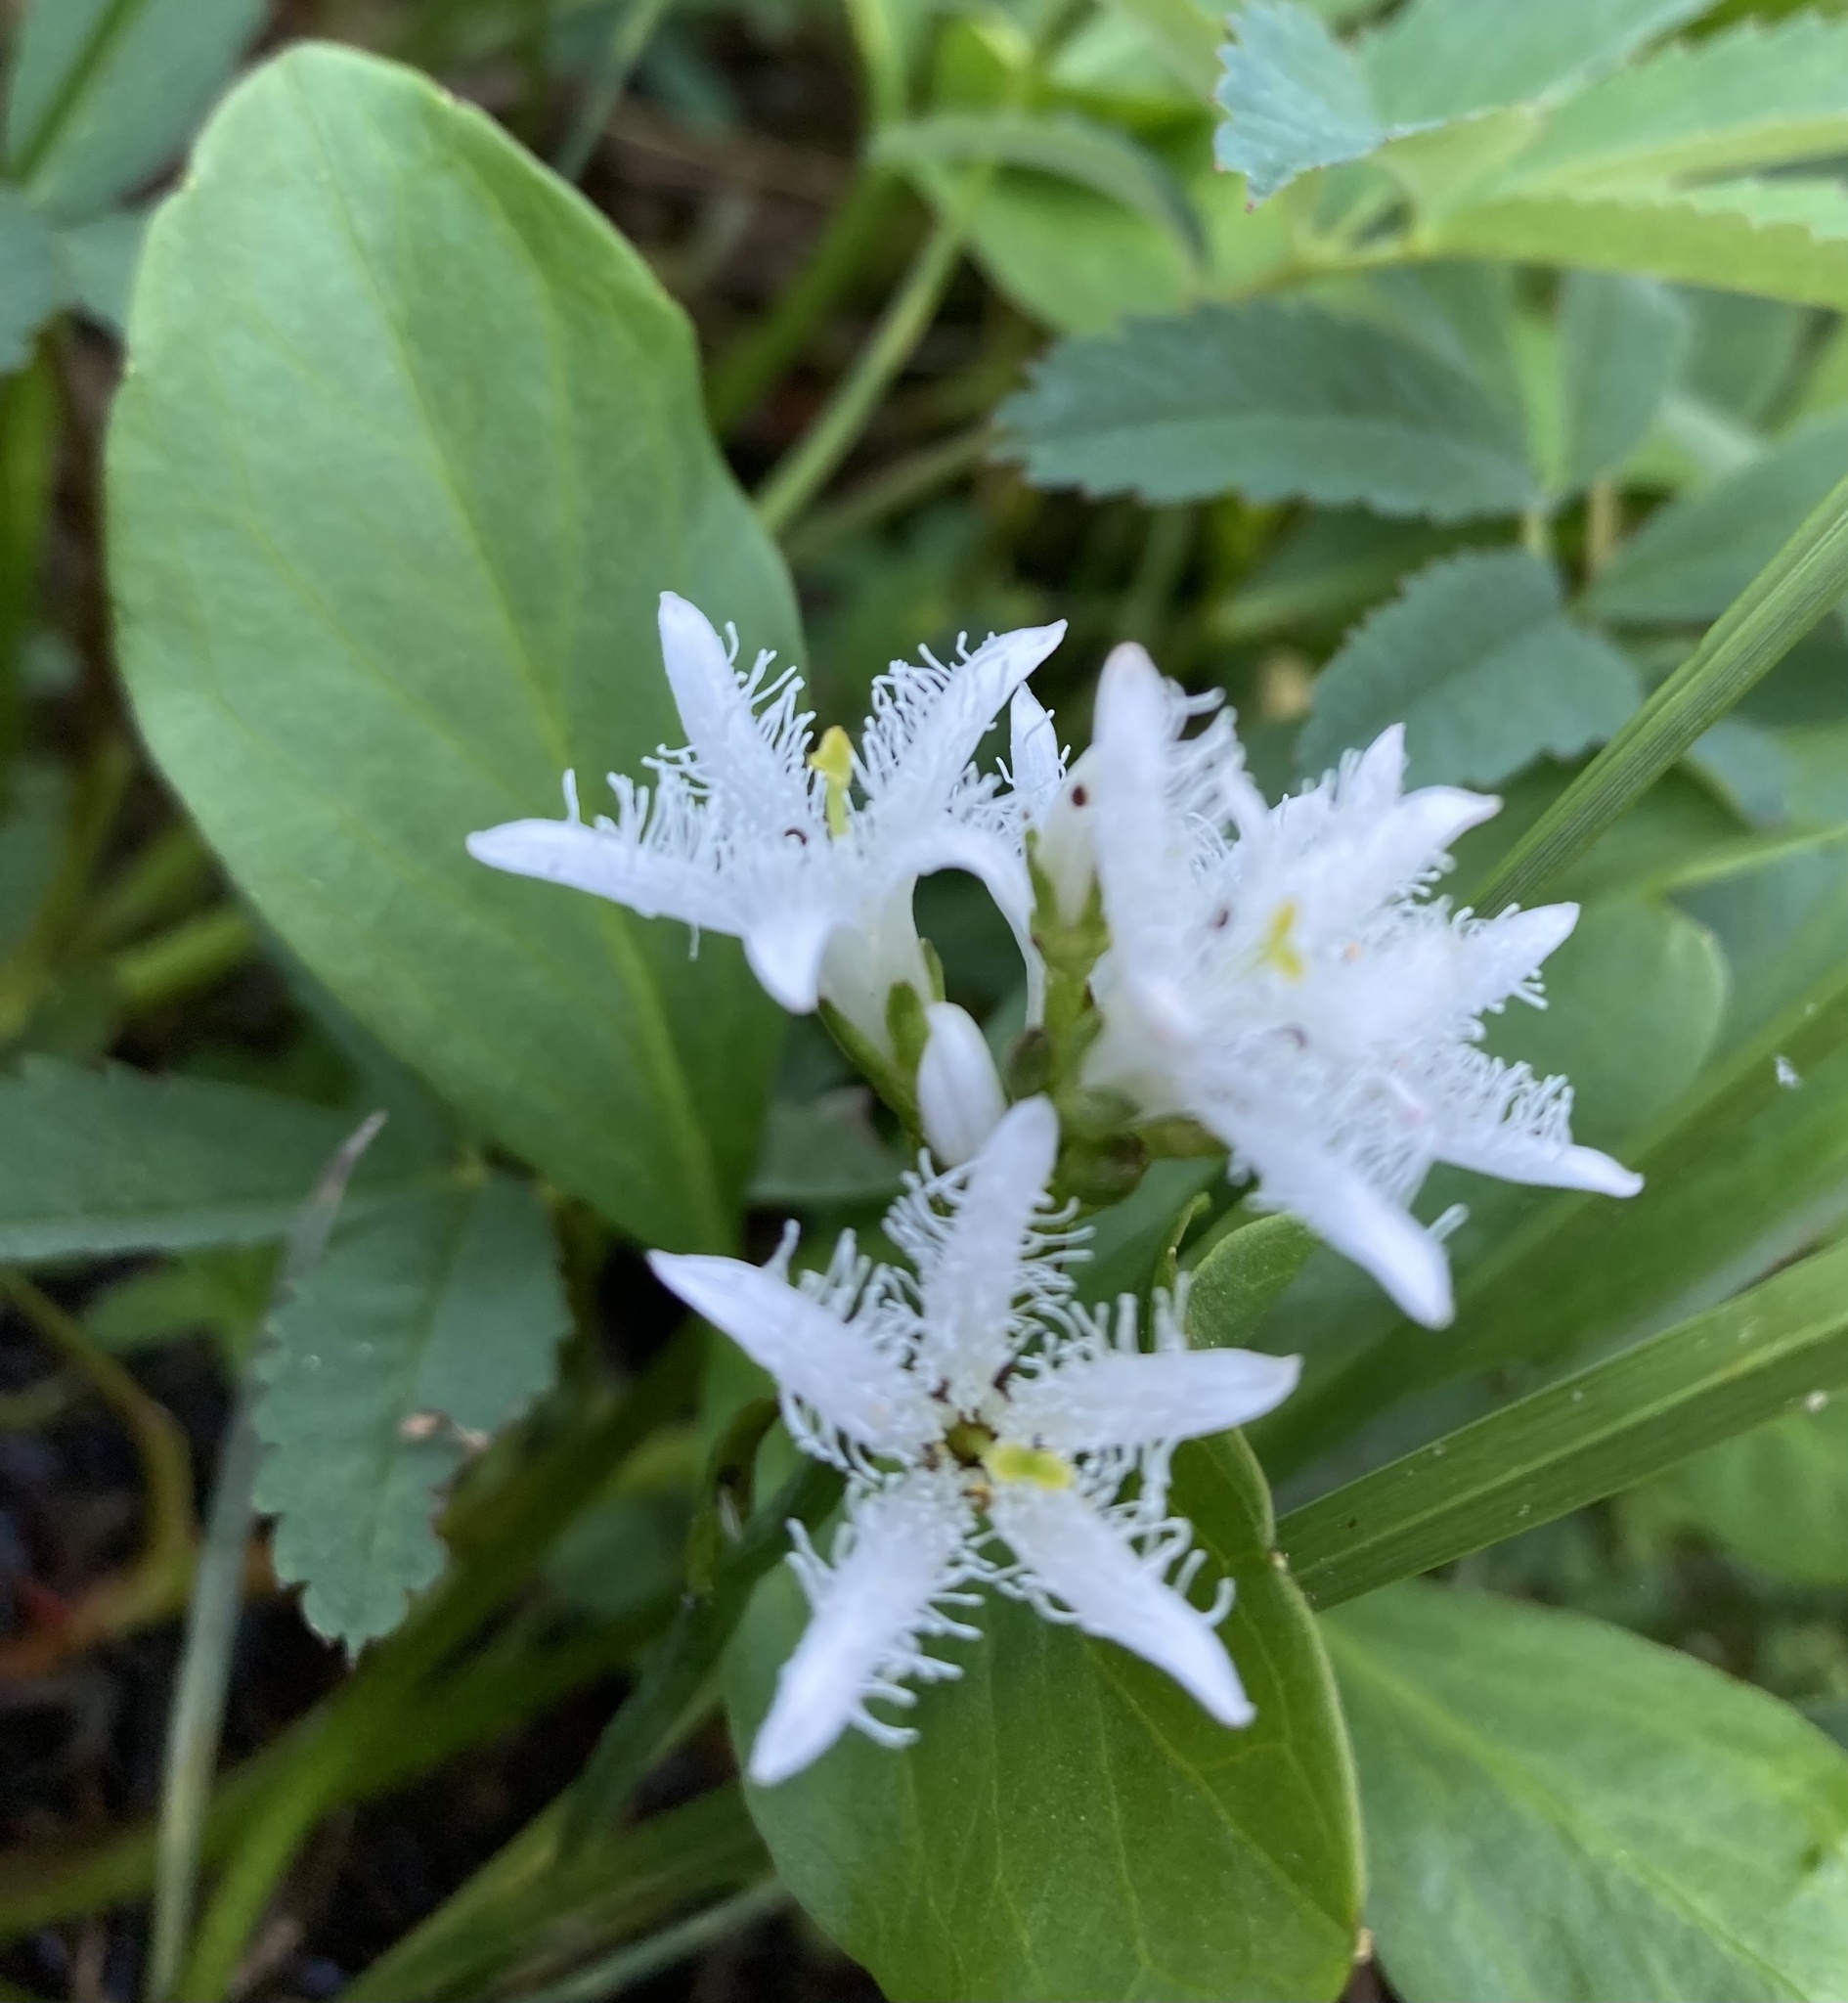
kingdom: Plantae
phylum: Tracheophyta
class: Magnoliopsida
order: Asterales
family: Menyanthaceae
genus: Menyanthes
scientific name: Menyanthes trifoliata
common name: Bogbean
